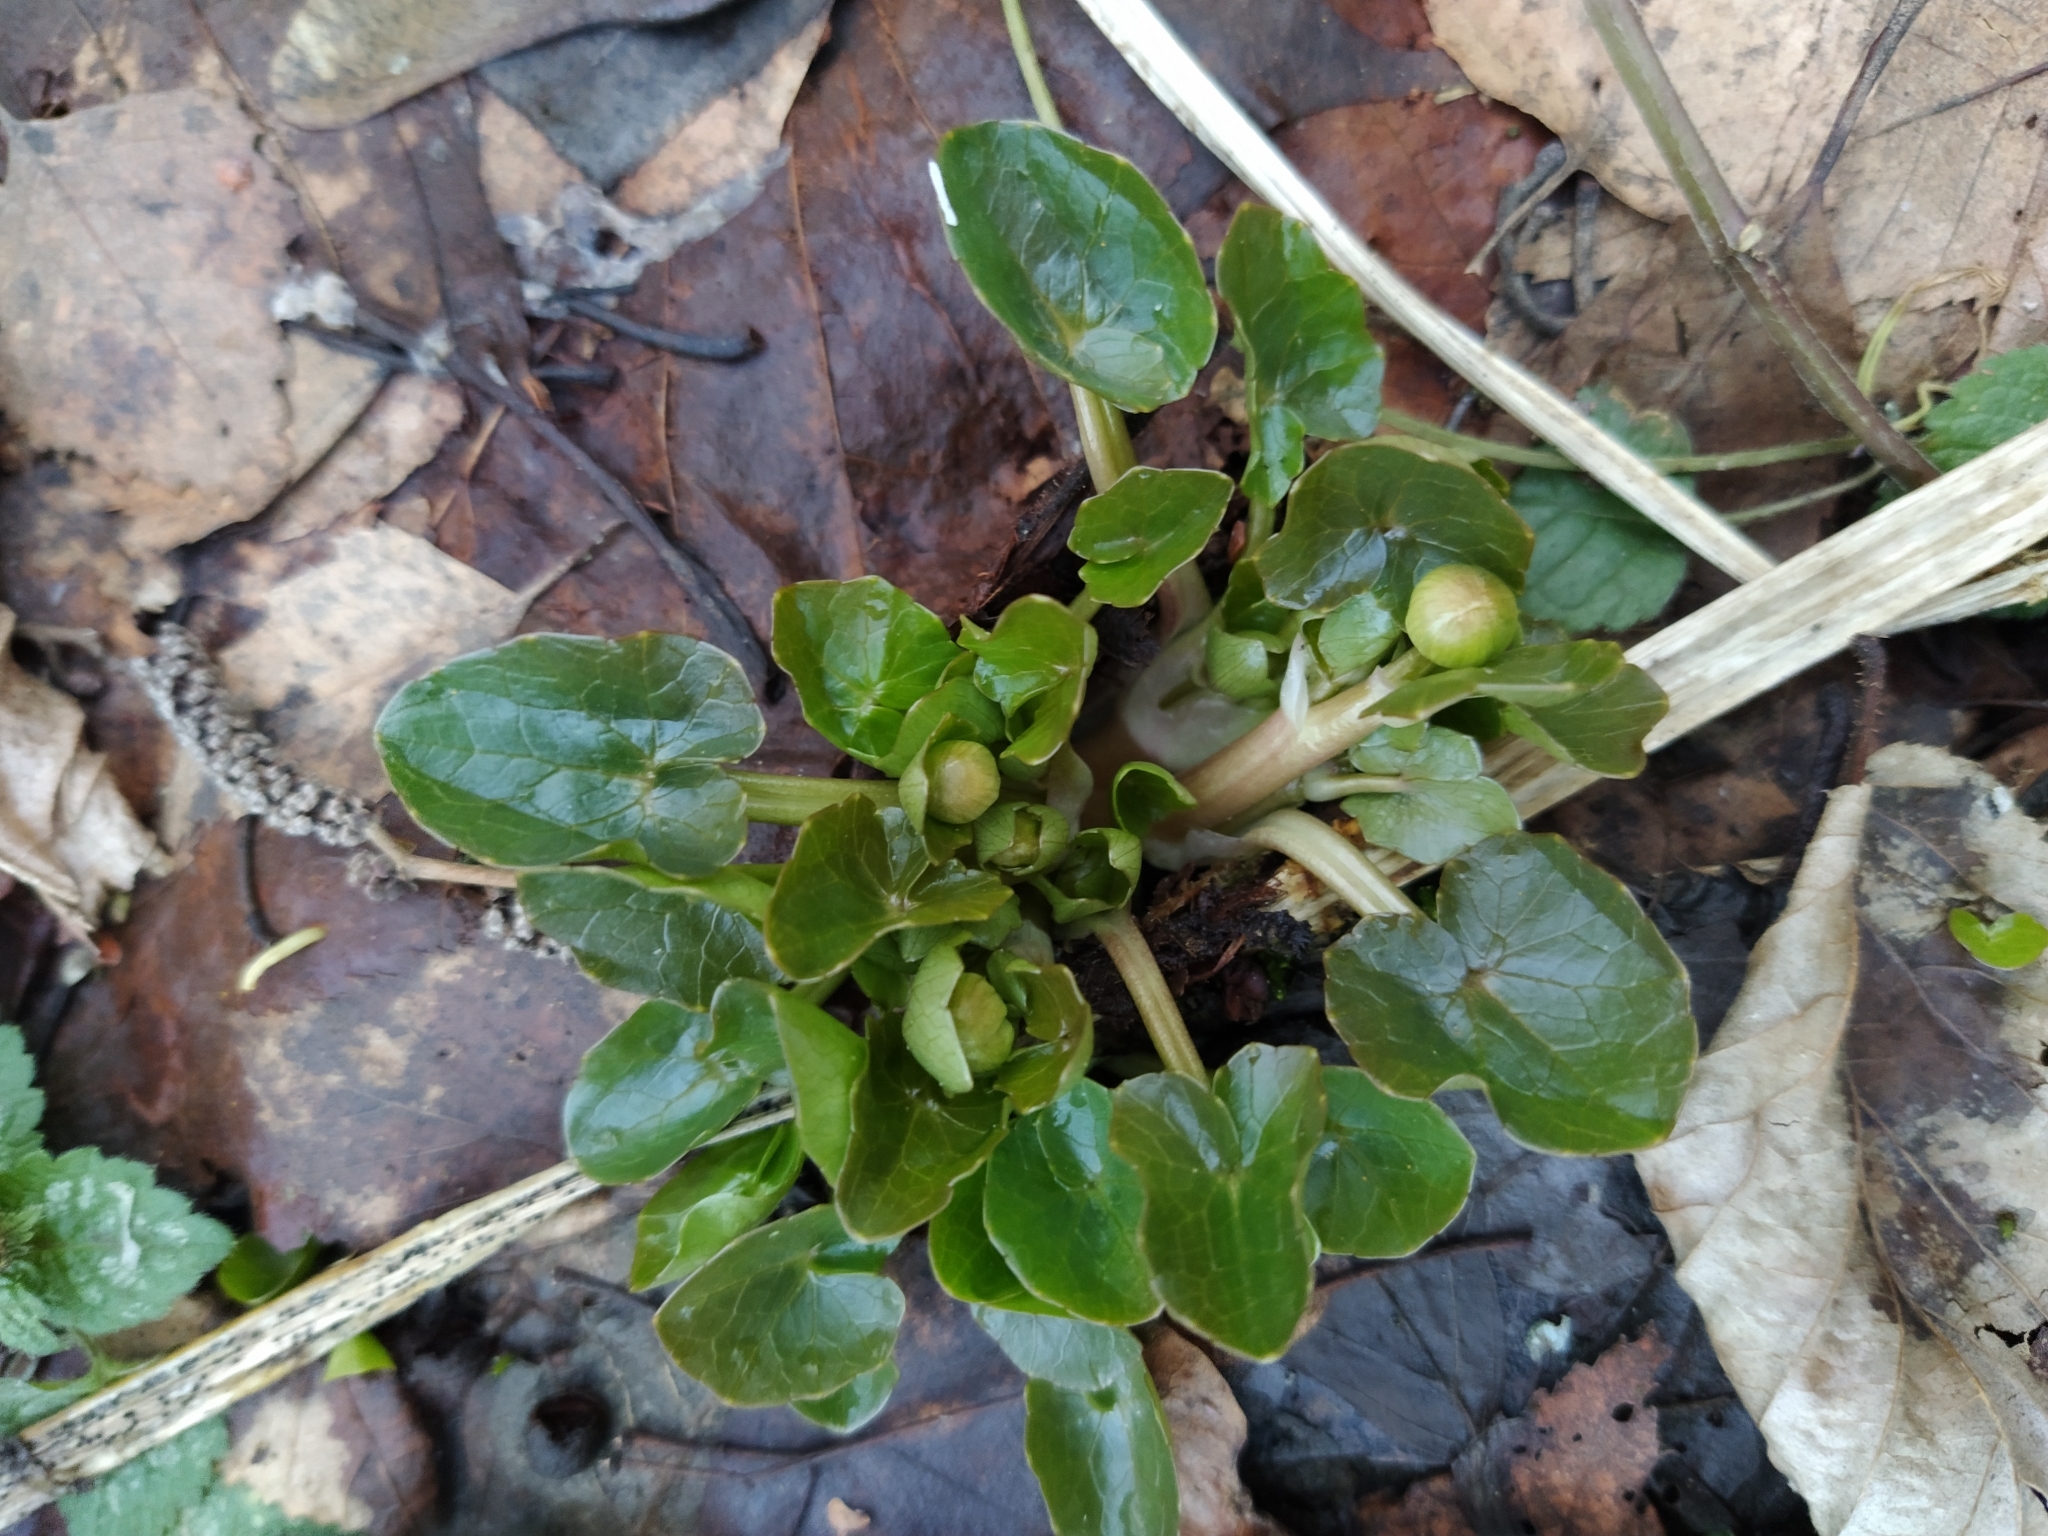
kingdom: Plantae
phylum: Tracheophyta
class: Magnoliopsida
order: Ranunculales
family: Ranunculaceae
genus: Ficaria
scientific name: Ficaria verna
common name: Lesser celandine
